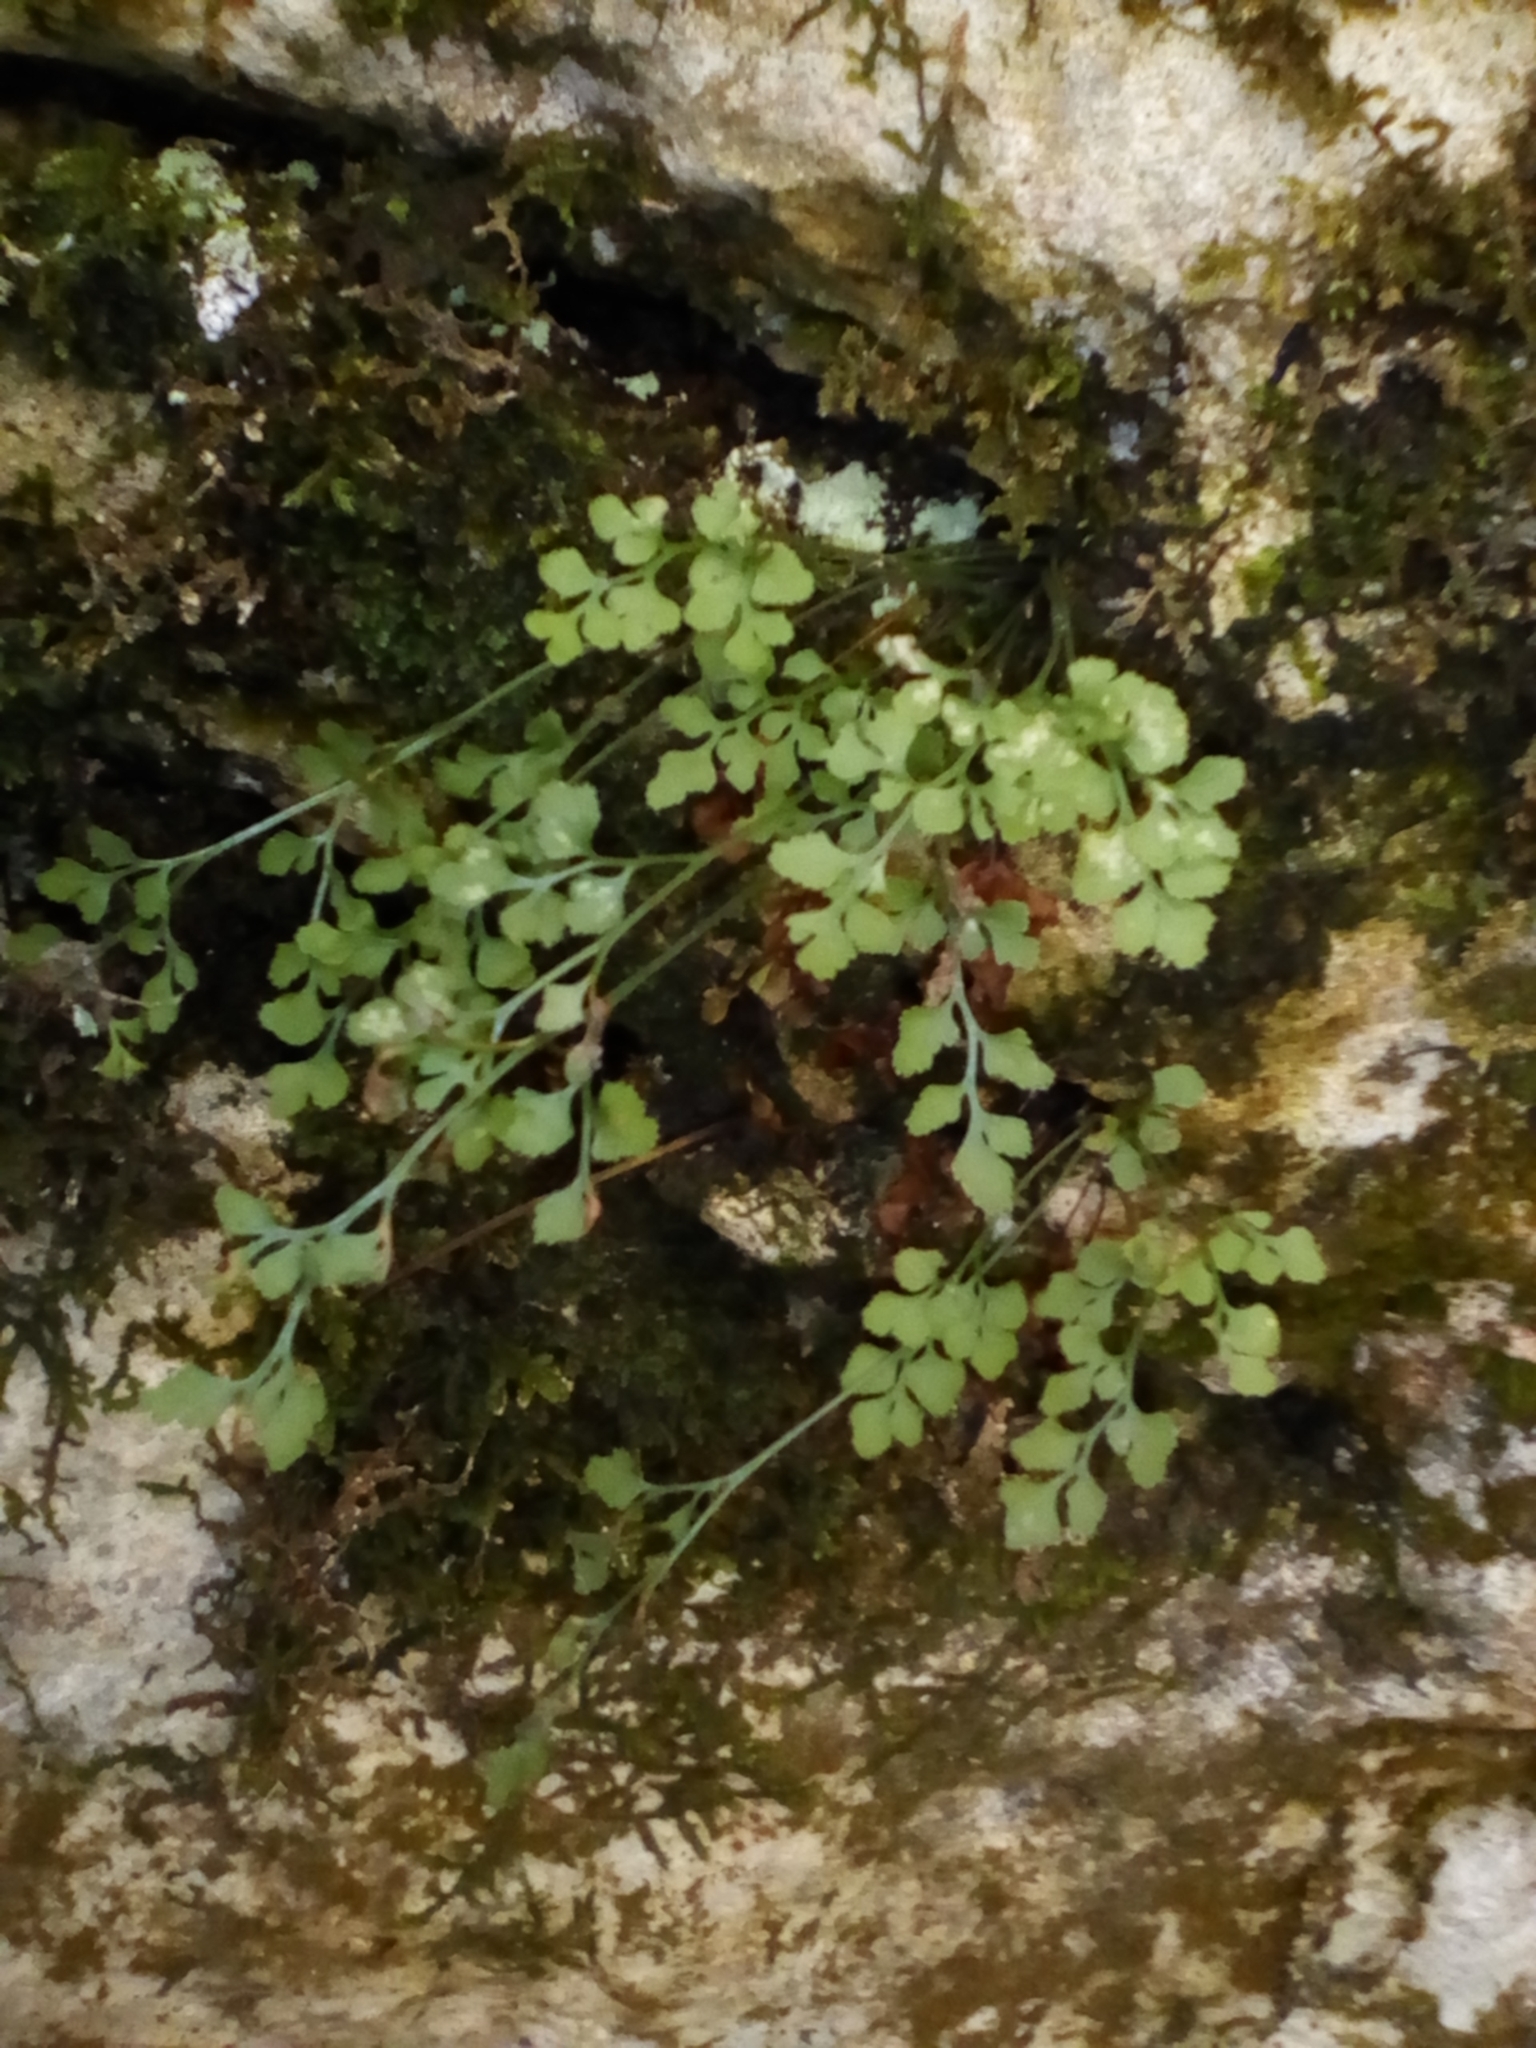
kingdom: Plantae
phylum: Tracheophyta
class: Polypodiopsida
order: Polypodiales
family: Aspleniaceae
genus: Asplenium
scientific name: Asplenium ruta-muraria
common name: Wall-rue
